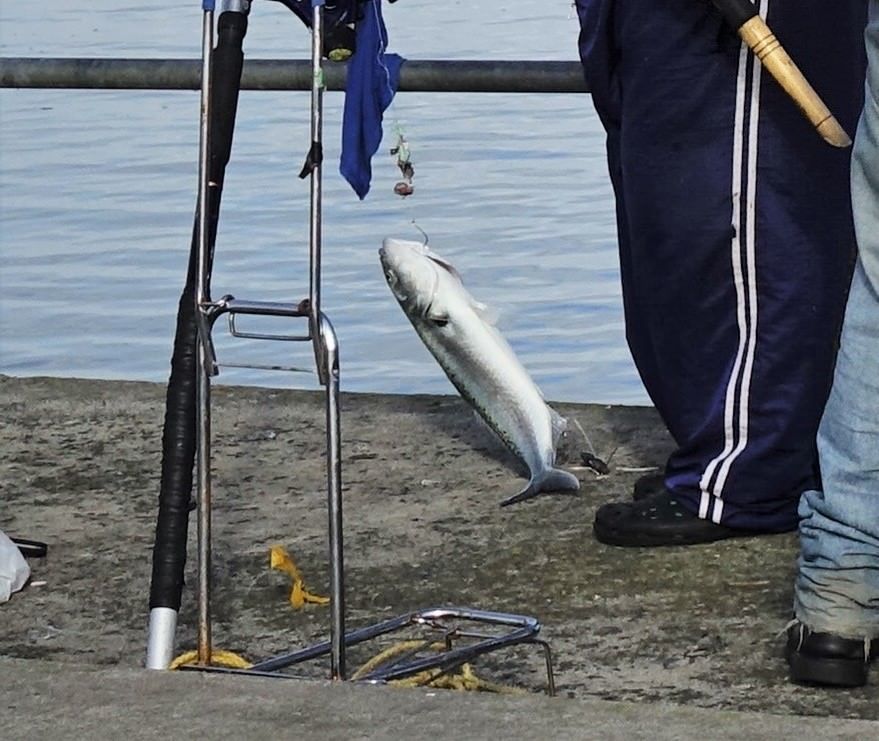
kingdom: Animalia
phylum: Chordata
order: Perciformes
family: Arripidae
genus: Arripis
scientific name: Arripis trutta
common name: Kahawai
